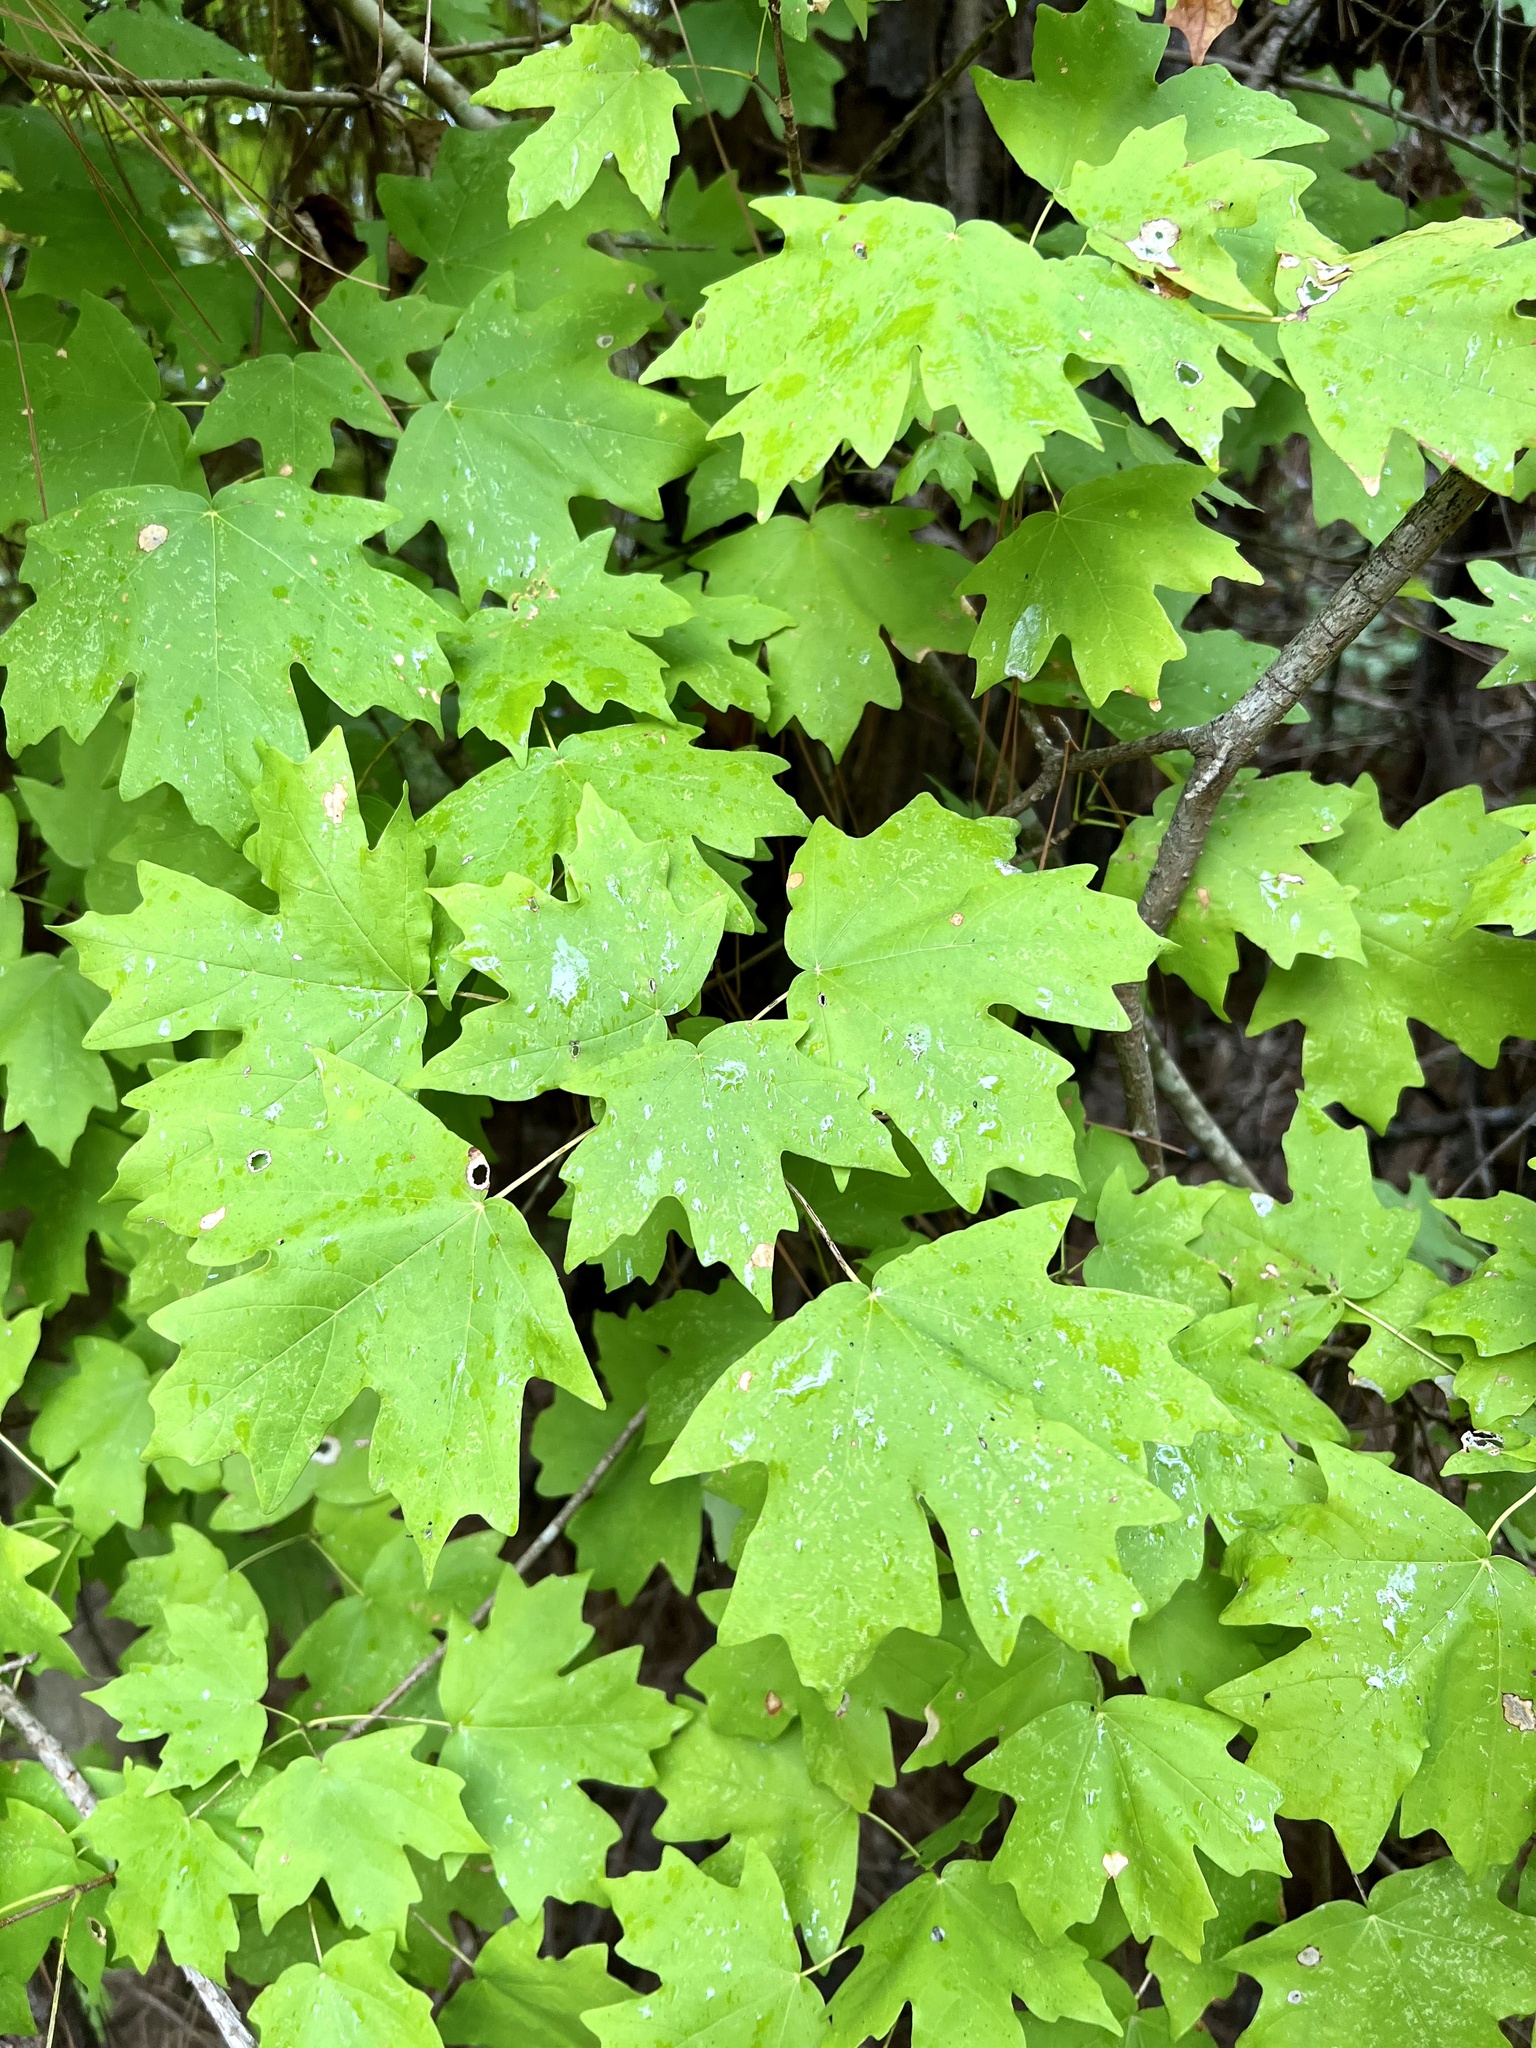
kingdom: Plantae
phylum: Tracheophyta
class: Magnoliopsida
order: Sapindales
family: Sapindaceae
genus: Acer
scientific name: Acer floridanum
